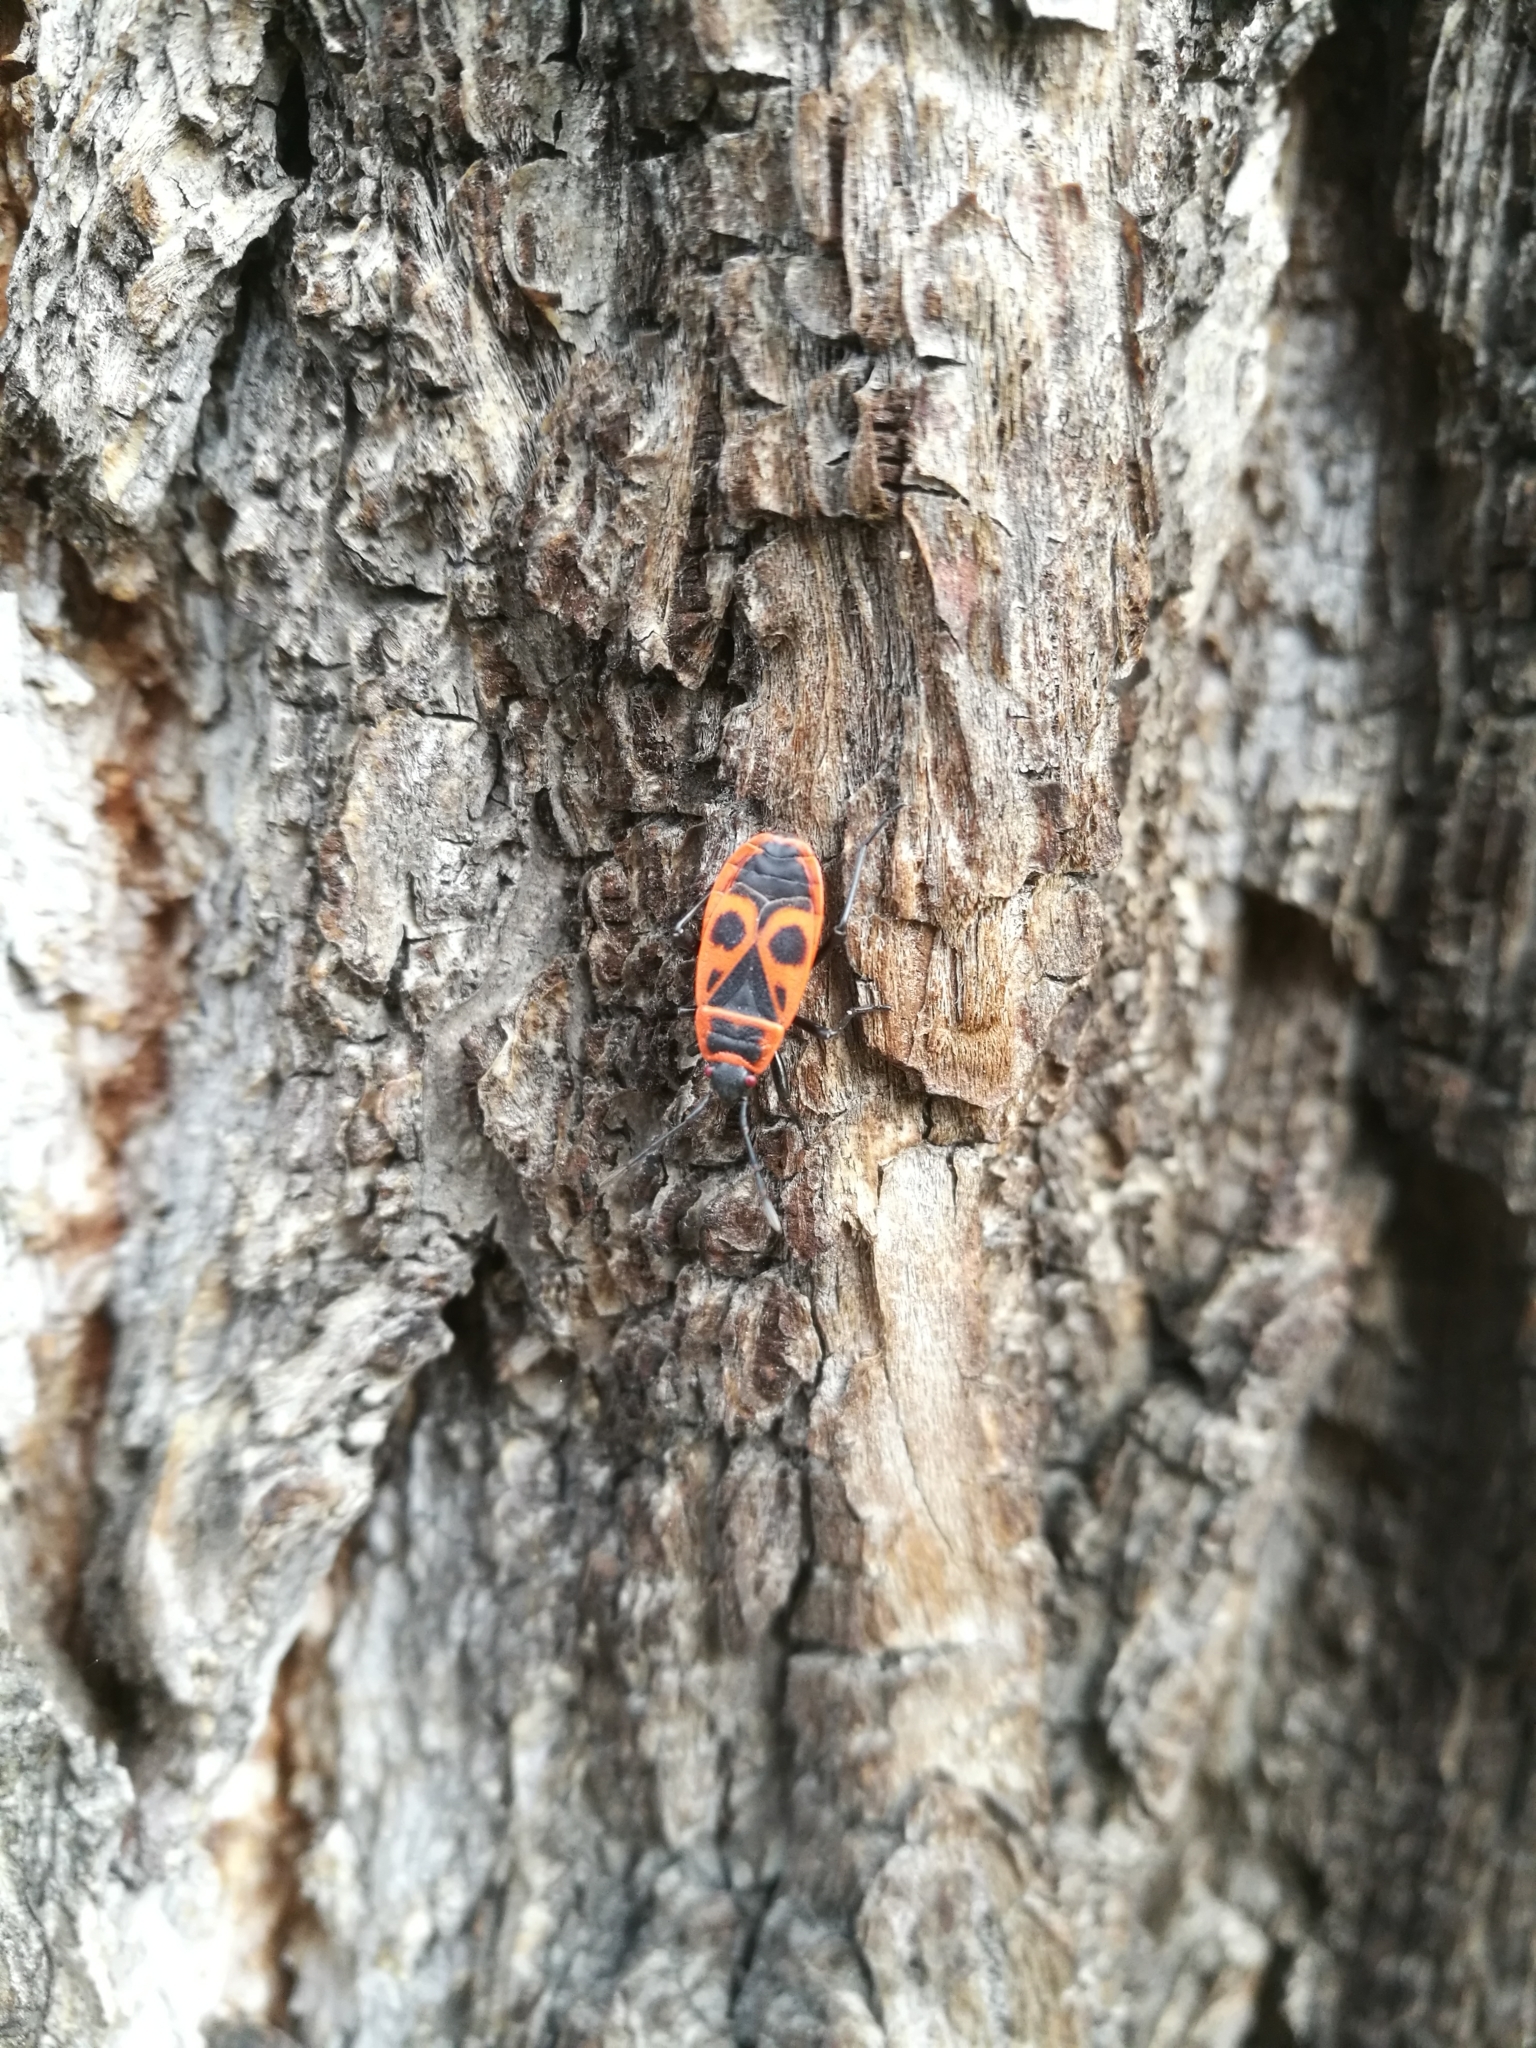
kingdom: Animalia
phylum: Arthropoda
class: Insecta
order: Hemiptera
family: Pyrrhocoridae
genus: Pyrrhocoris
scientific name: Pyrrhocoris apterus
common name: Firebug
